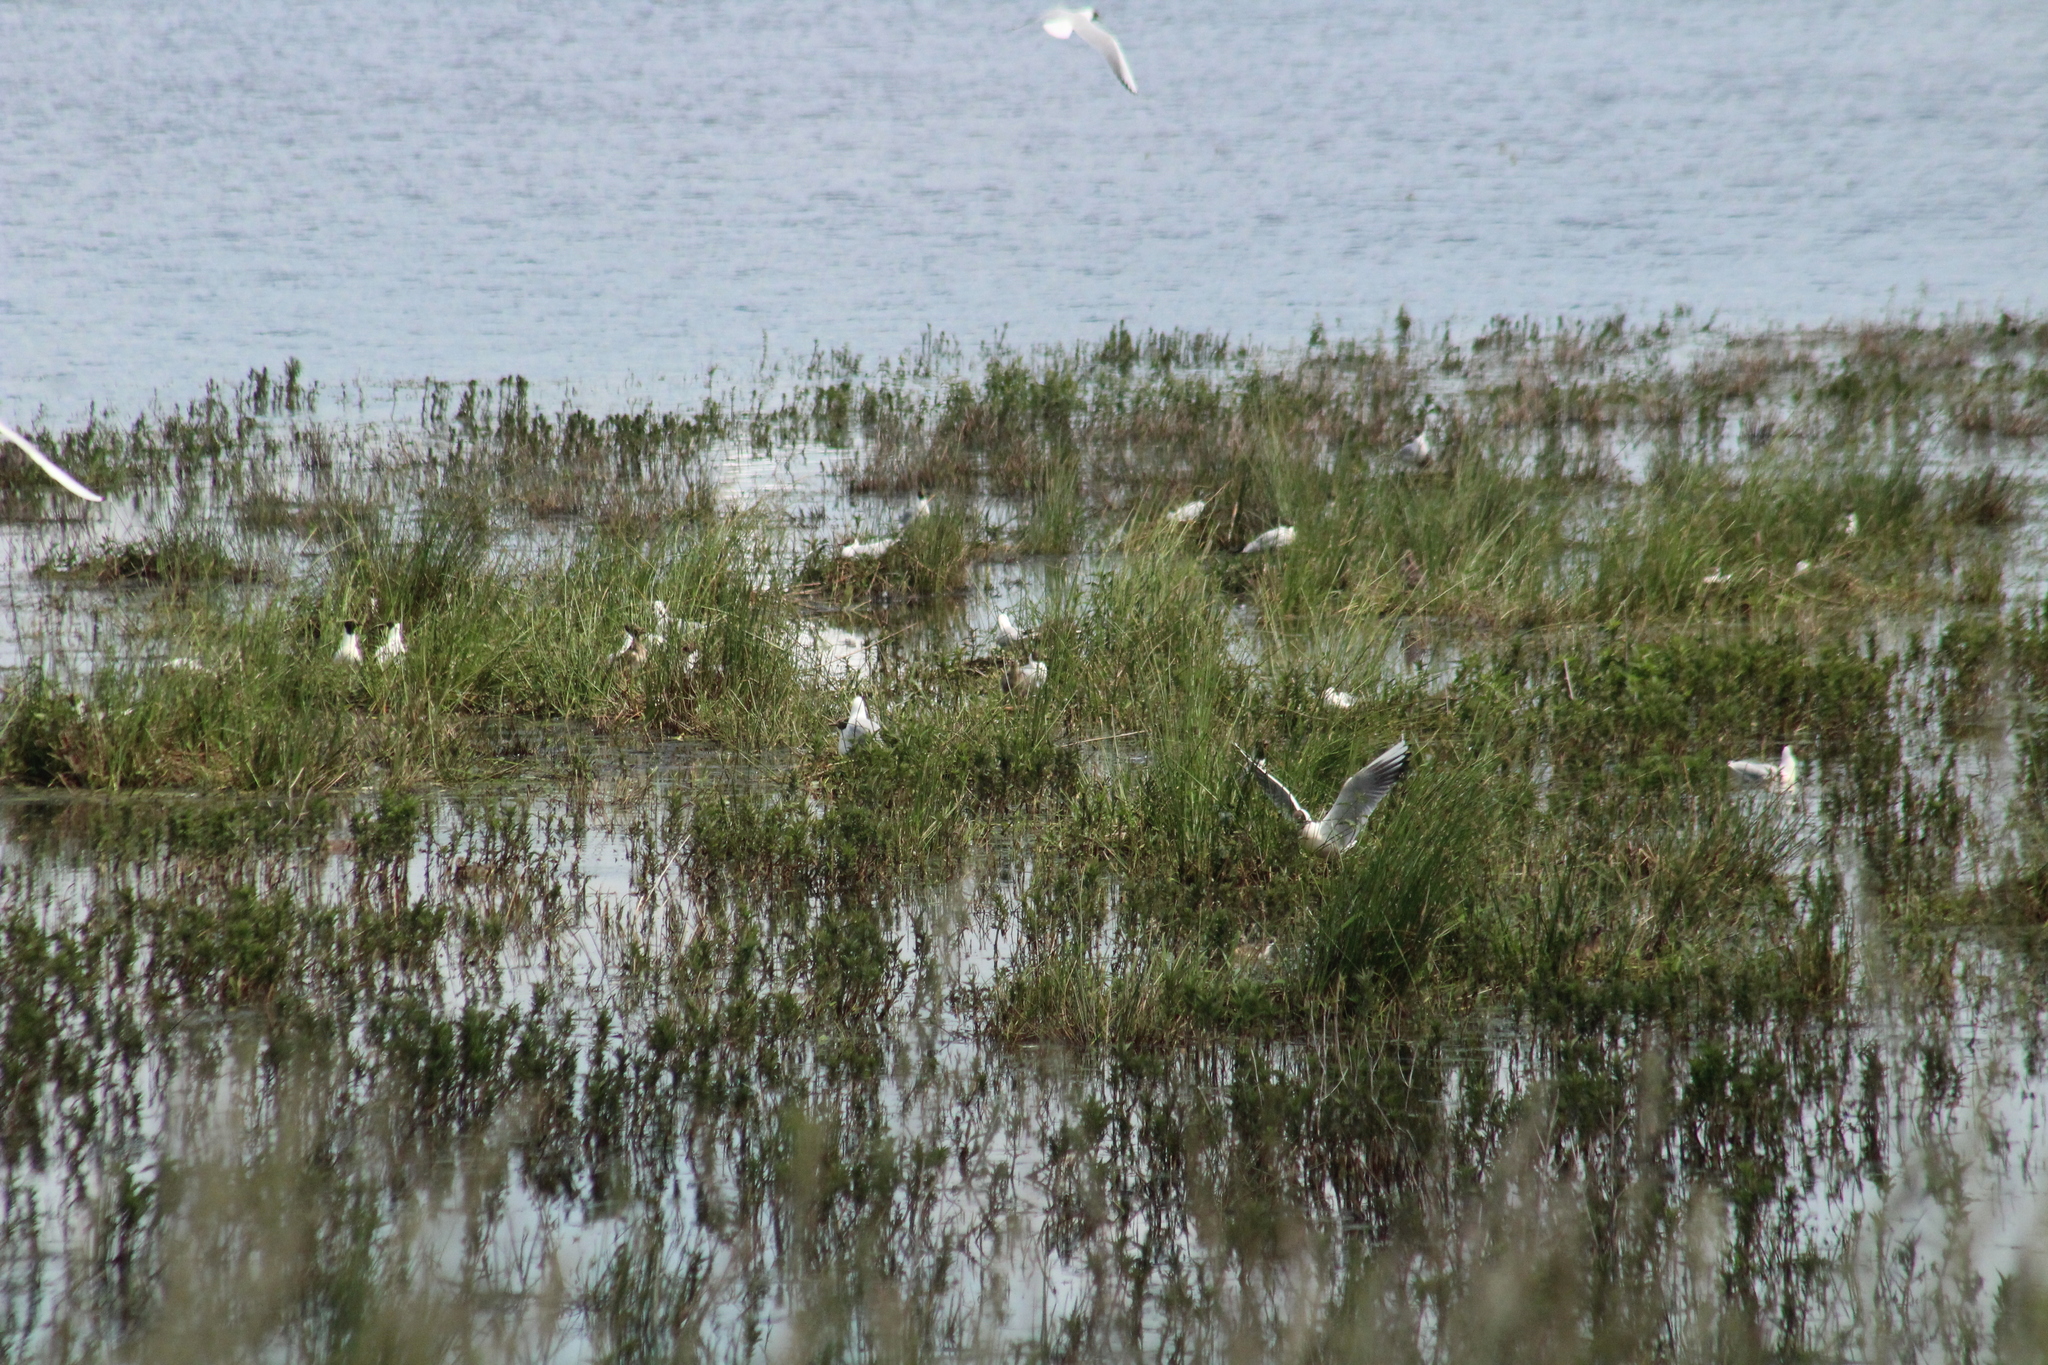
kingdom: Animalia
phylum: Chordata
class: Aves
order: Charadriiformes
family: Laridae
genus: Chroicocephalus
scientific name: Chroicocephalus ridibundus
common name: Black-headed gull
